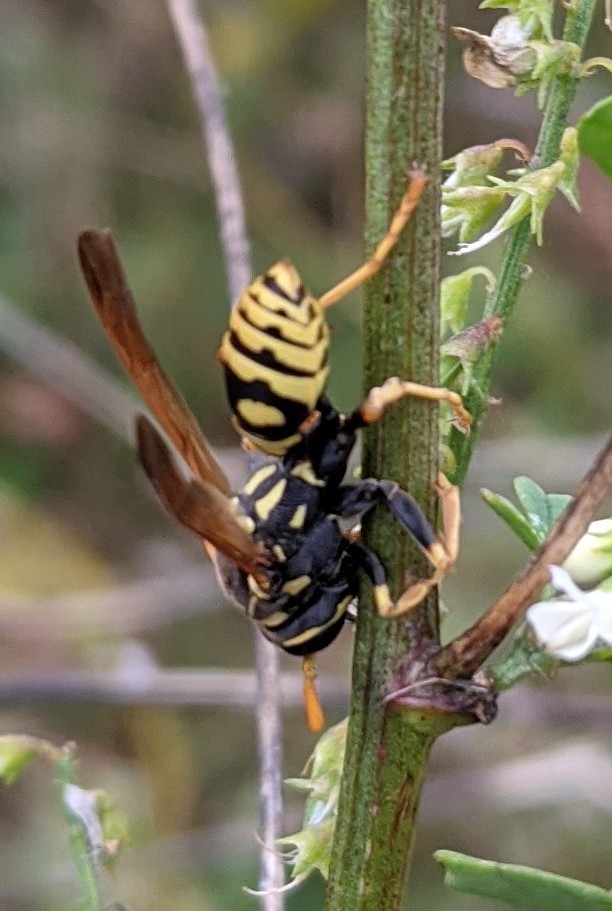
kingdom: Animalia
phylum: Arthropoda
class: Insecta
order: Hymenoptera
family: Eumenidae
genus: Polistes
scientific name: Polistes dominula
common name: Paper wasp
